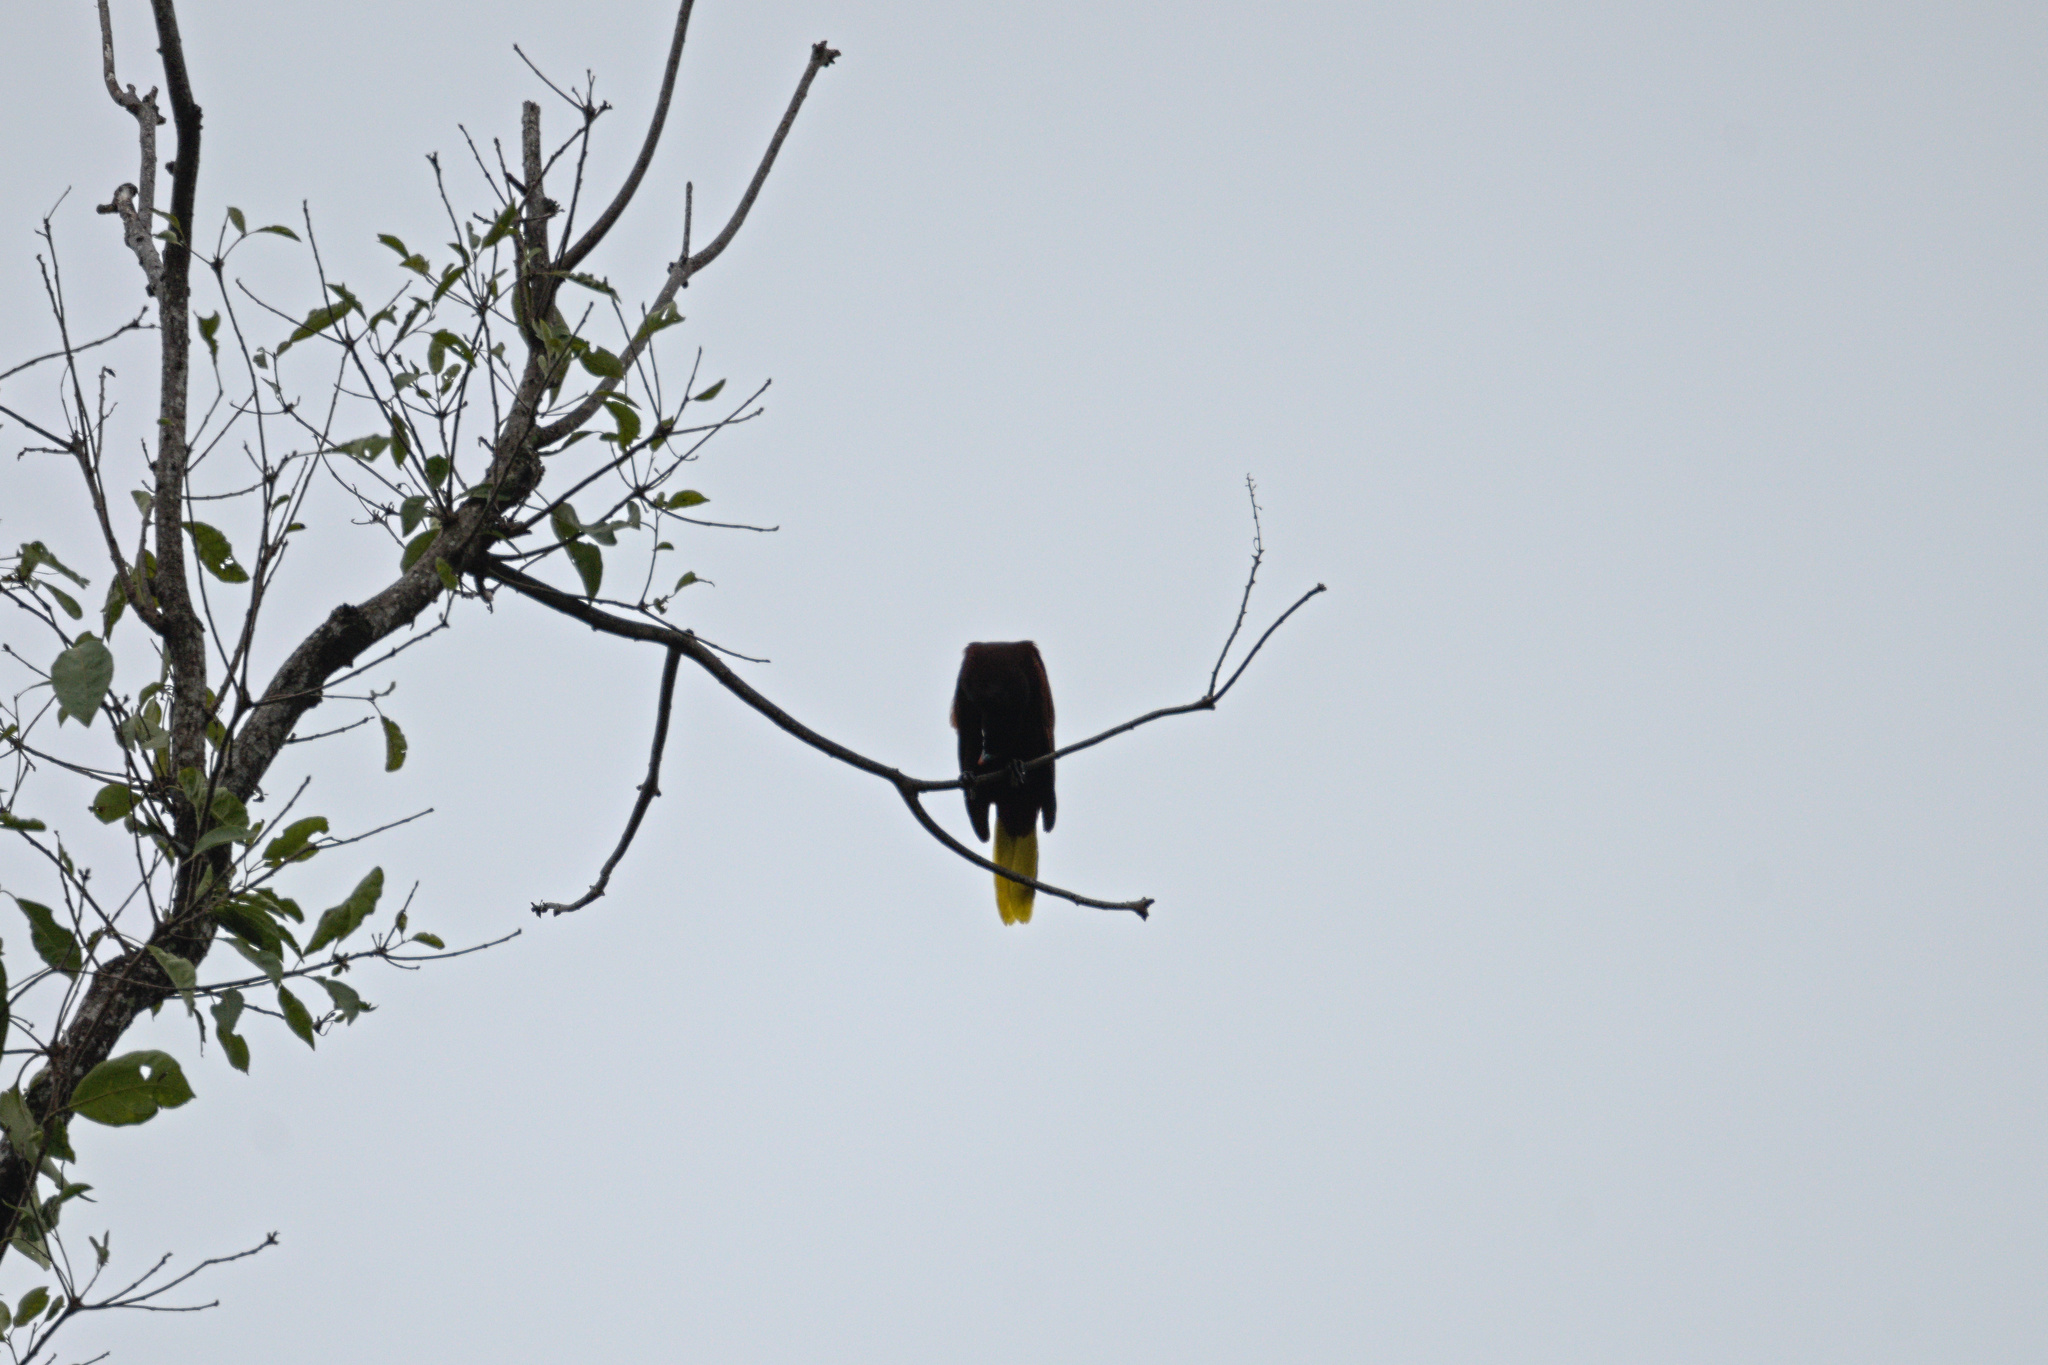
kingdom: Animalia
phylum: Chordata
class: Aves
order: Passeriformes
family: Icteridae
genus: Psarocolius
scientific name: Psarocolius montezuma
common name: Montezuma oropendola
